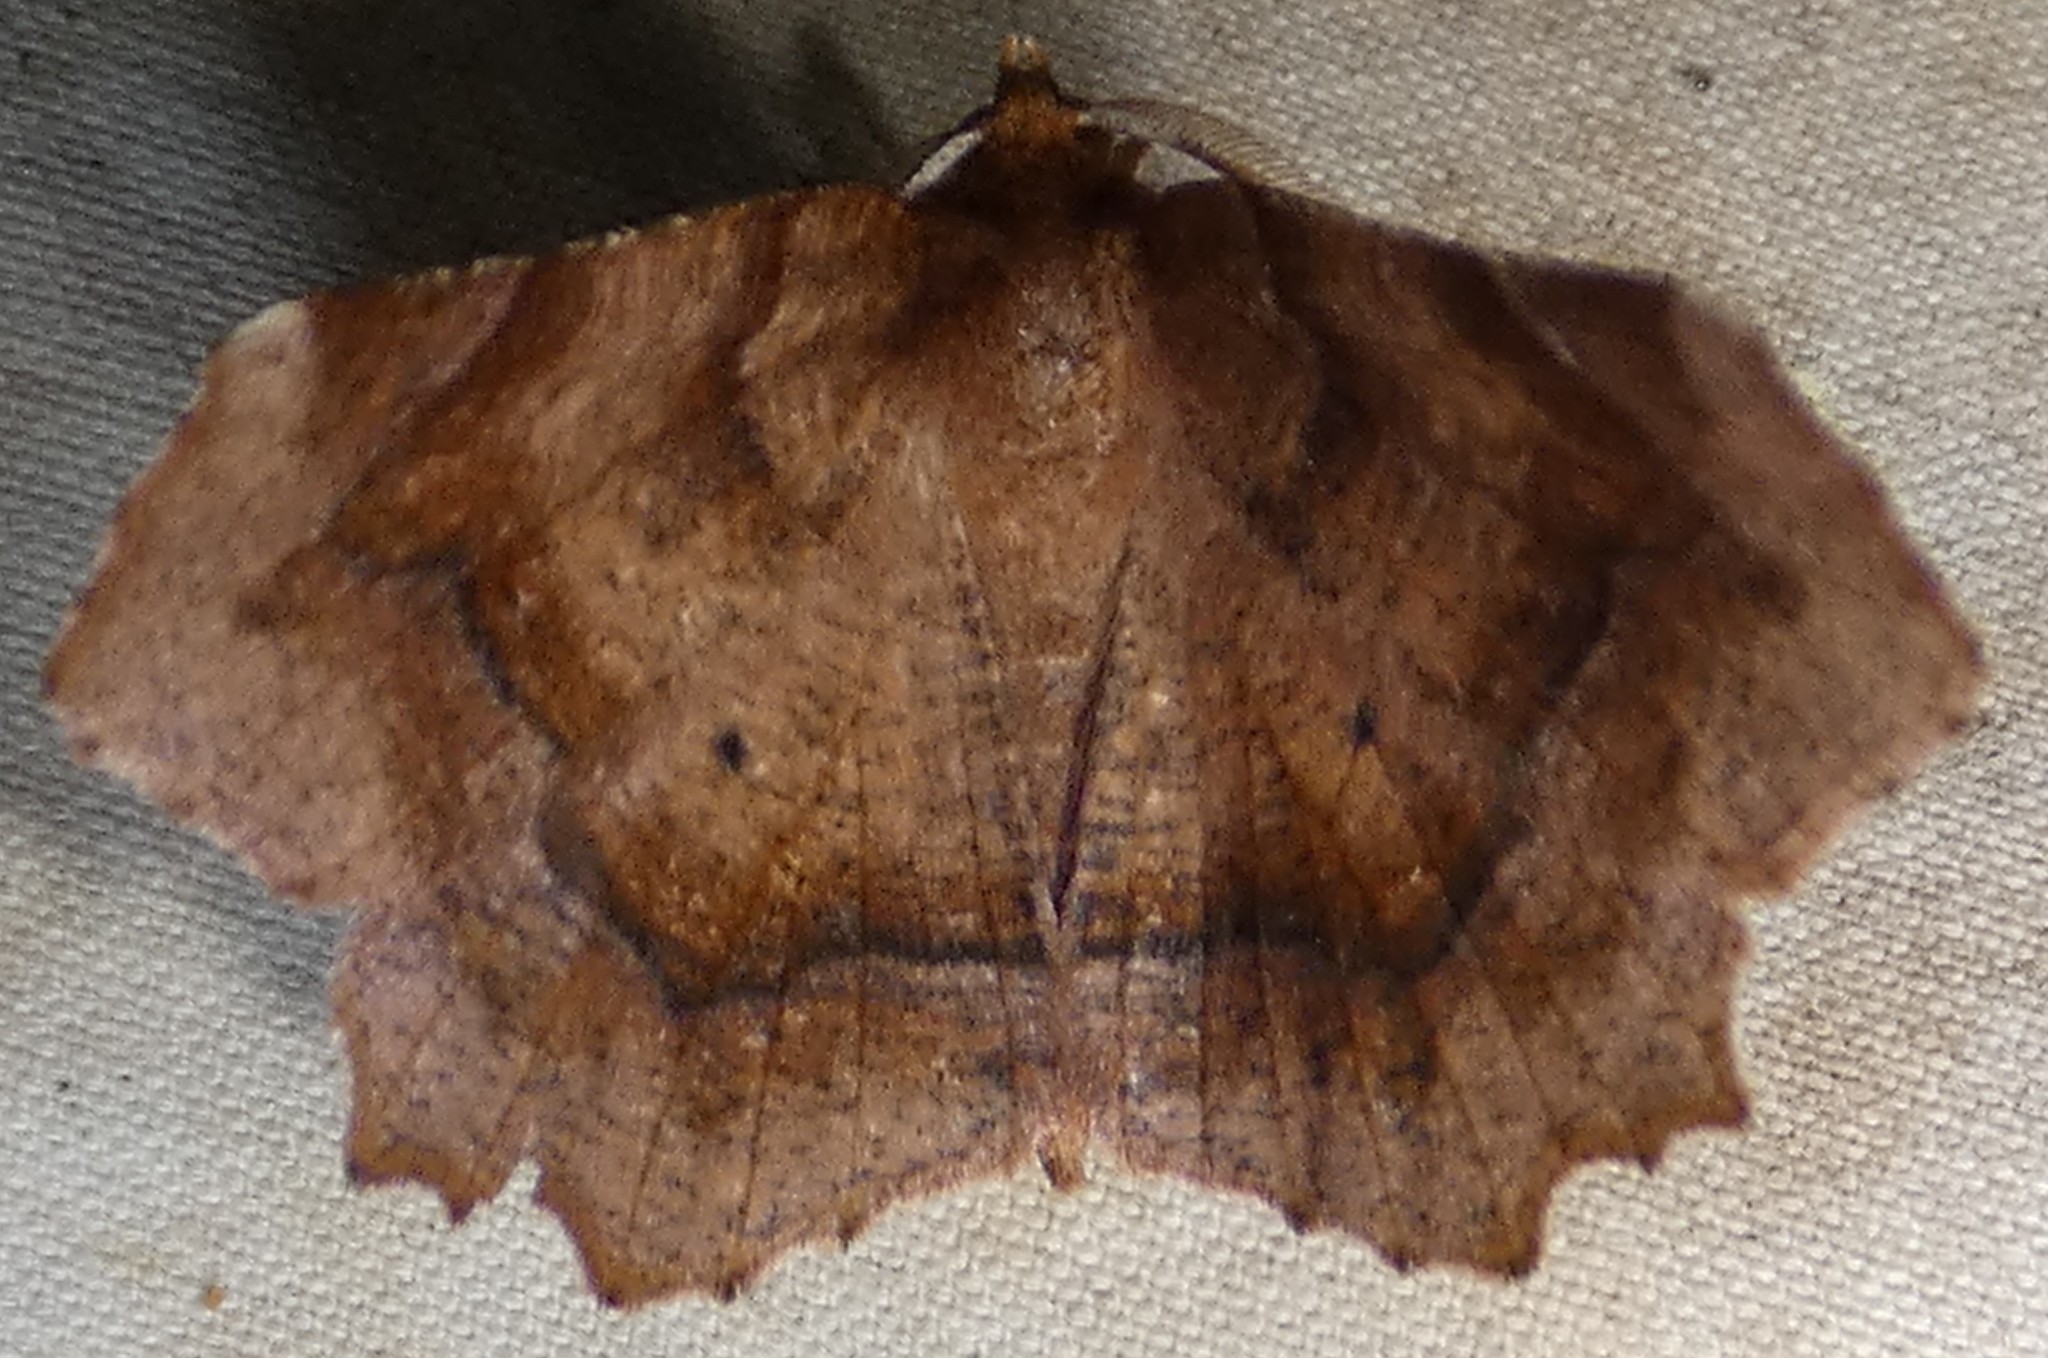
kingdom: Animalia
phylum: Arthropoda
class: Insecta
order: Lepidoptera
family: Geometridae
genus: Metarranthis
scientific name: Metarranthis homuraria
